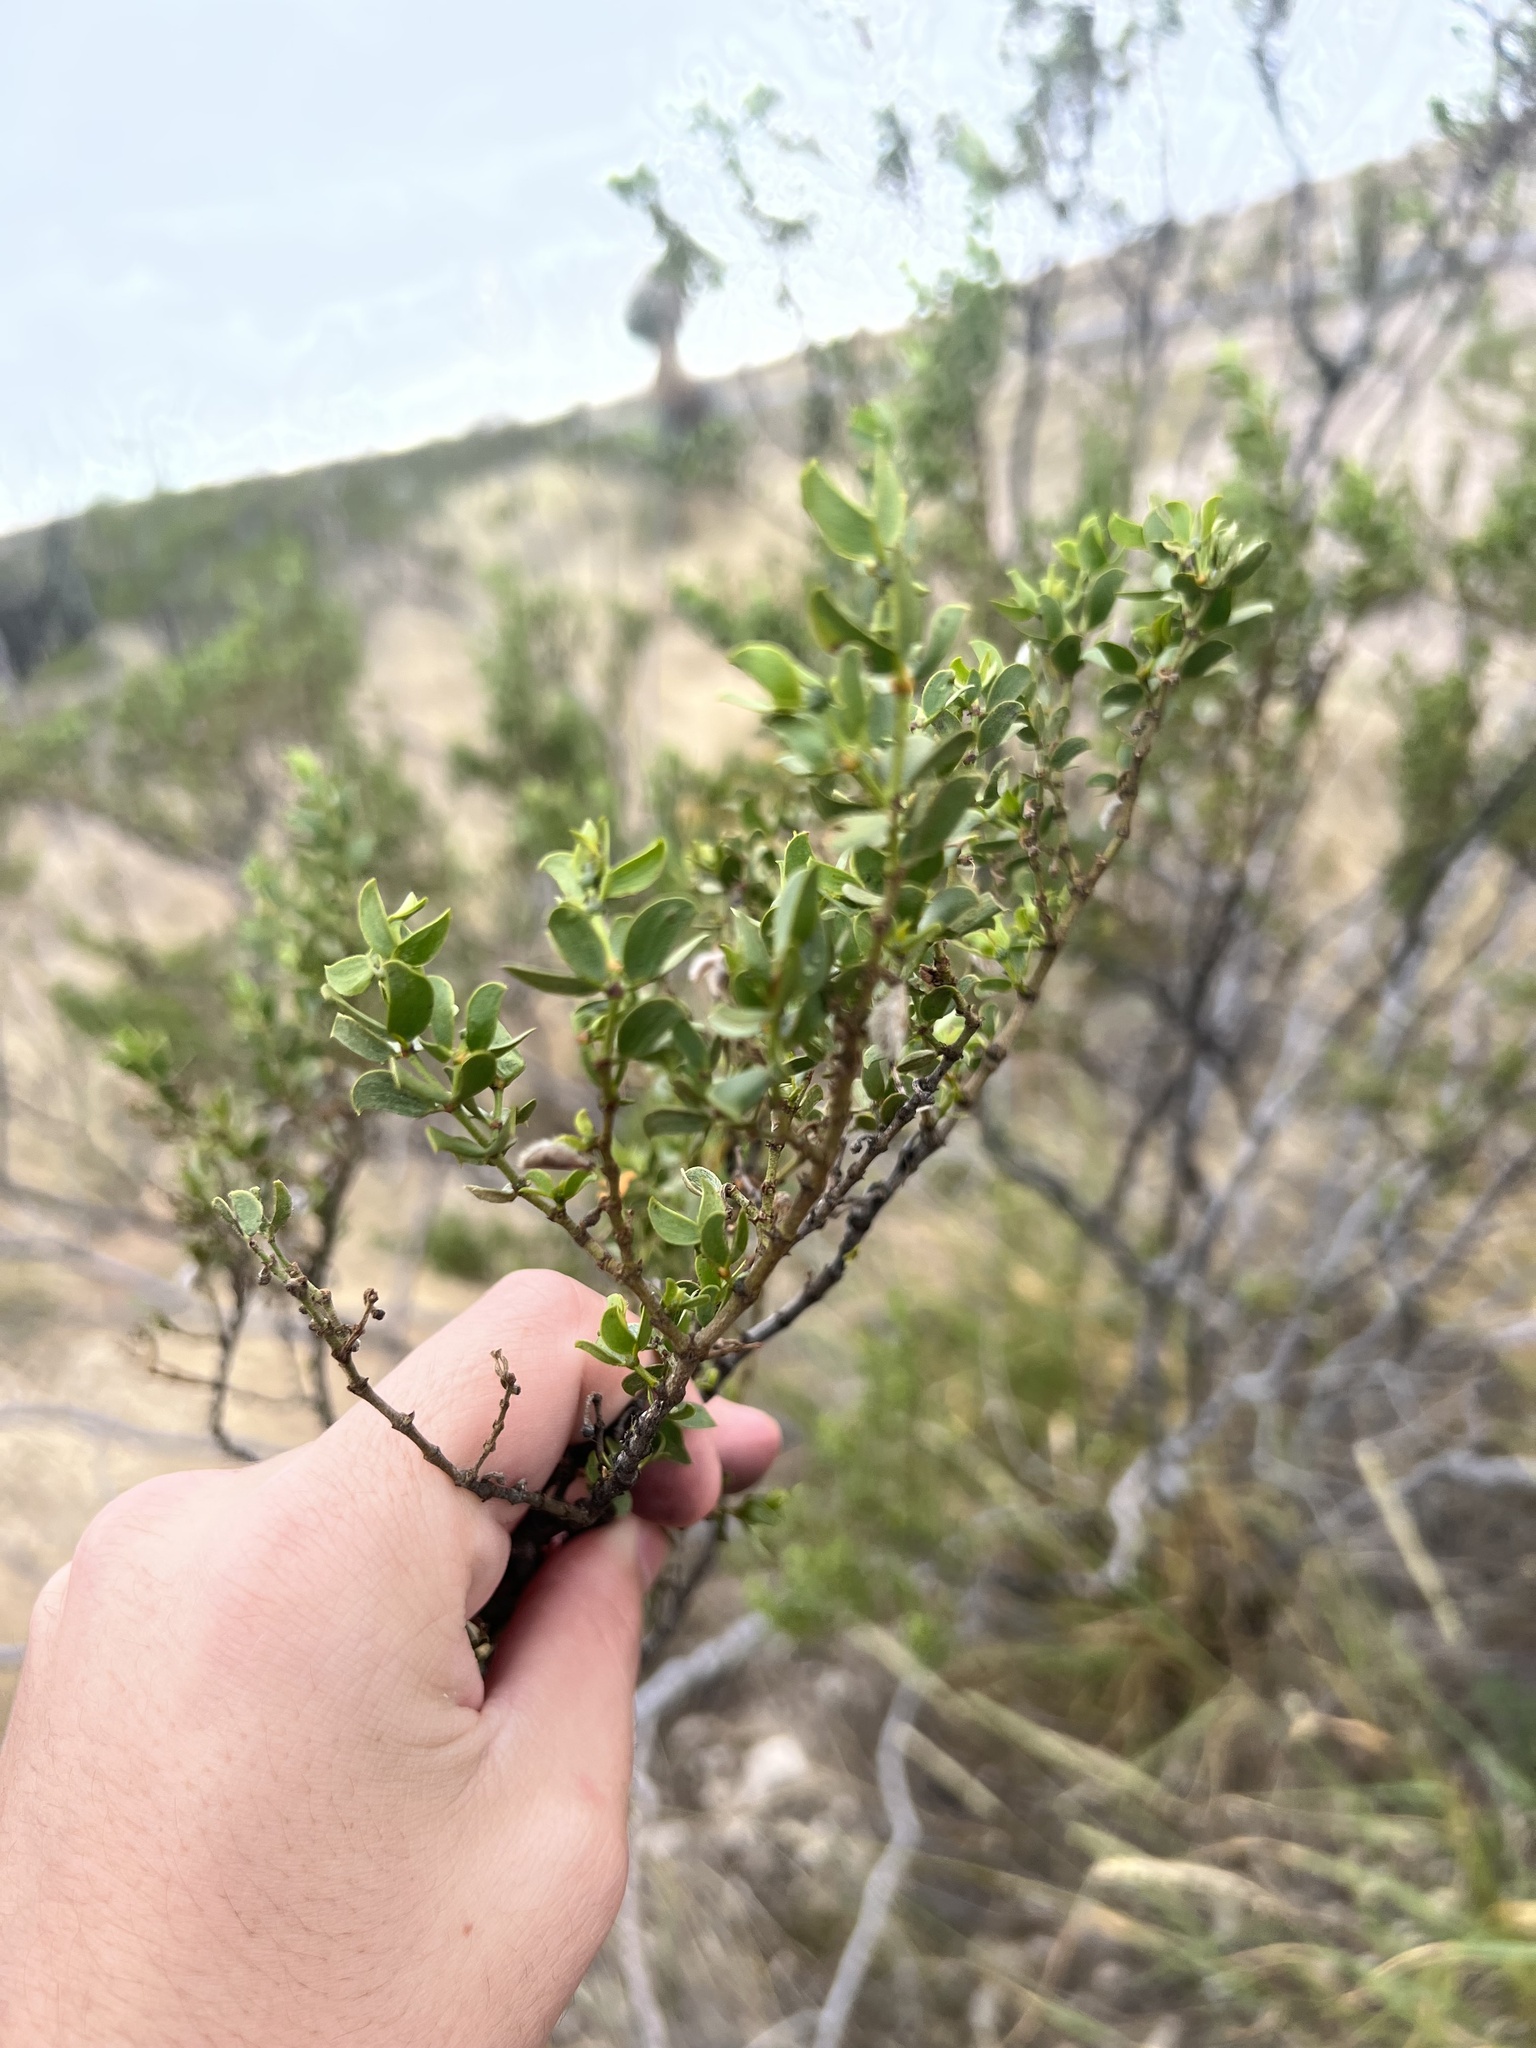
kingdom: Plantae
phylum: Tracheophyta
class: Magnoliopsida
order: Zygophyllales
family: Zygophyllaceae
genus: Larrea
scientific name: Larrea tridentata
